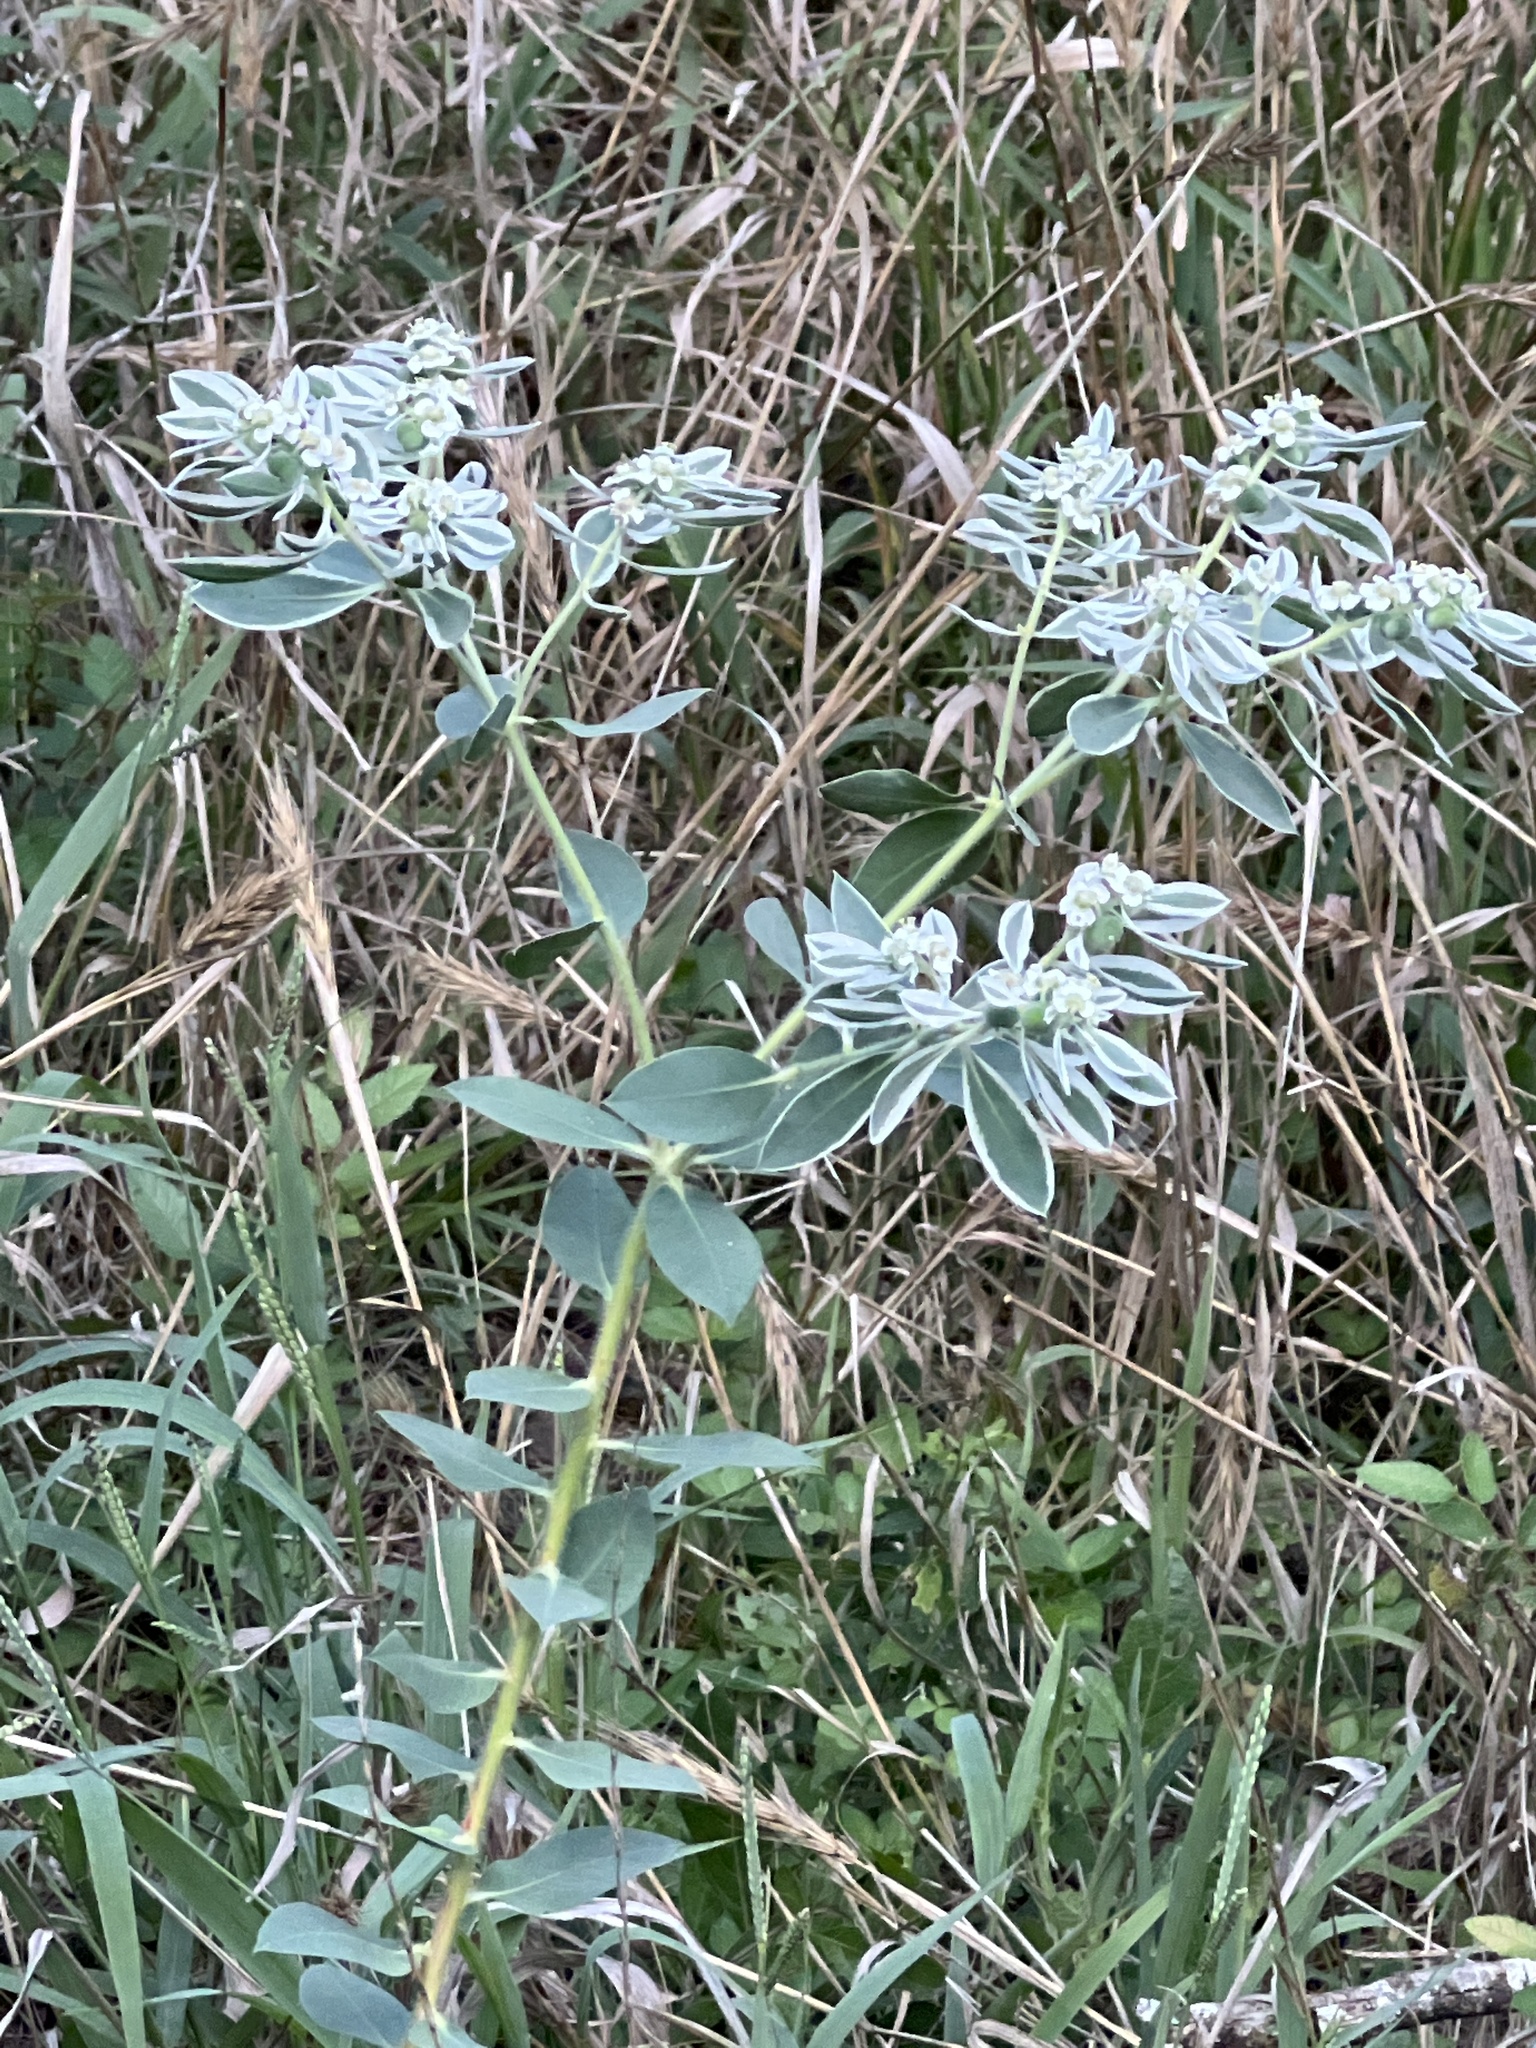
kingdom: Plantae
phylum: Tracheophyta
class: Magnoliopsida
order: Malpighiales
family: Euphorbiaceae
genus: Euphorbia
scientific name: Euphorbia marginata
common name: Ghostweed
